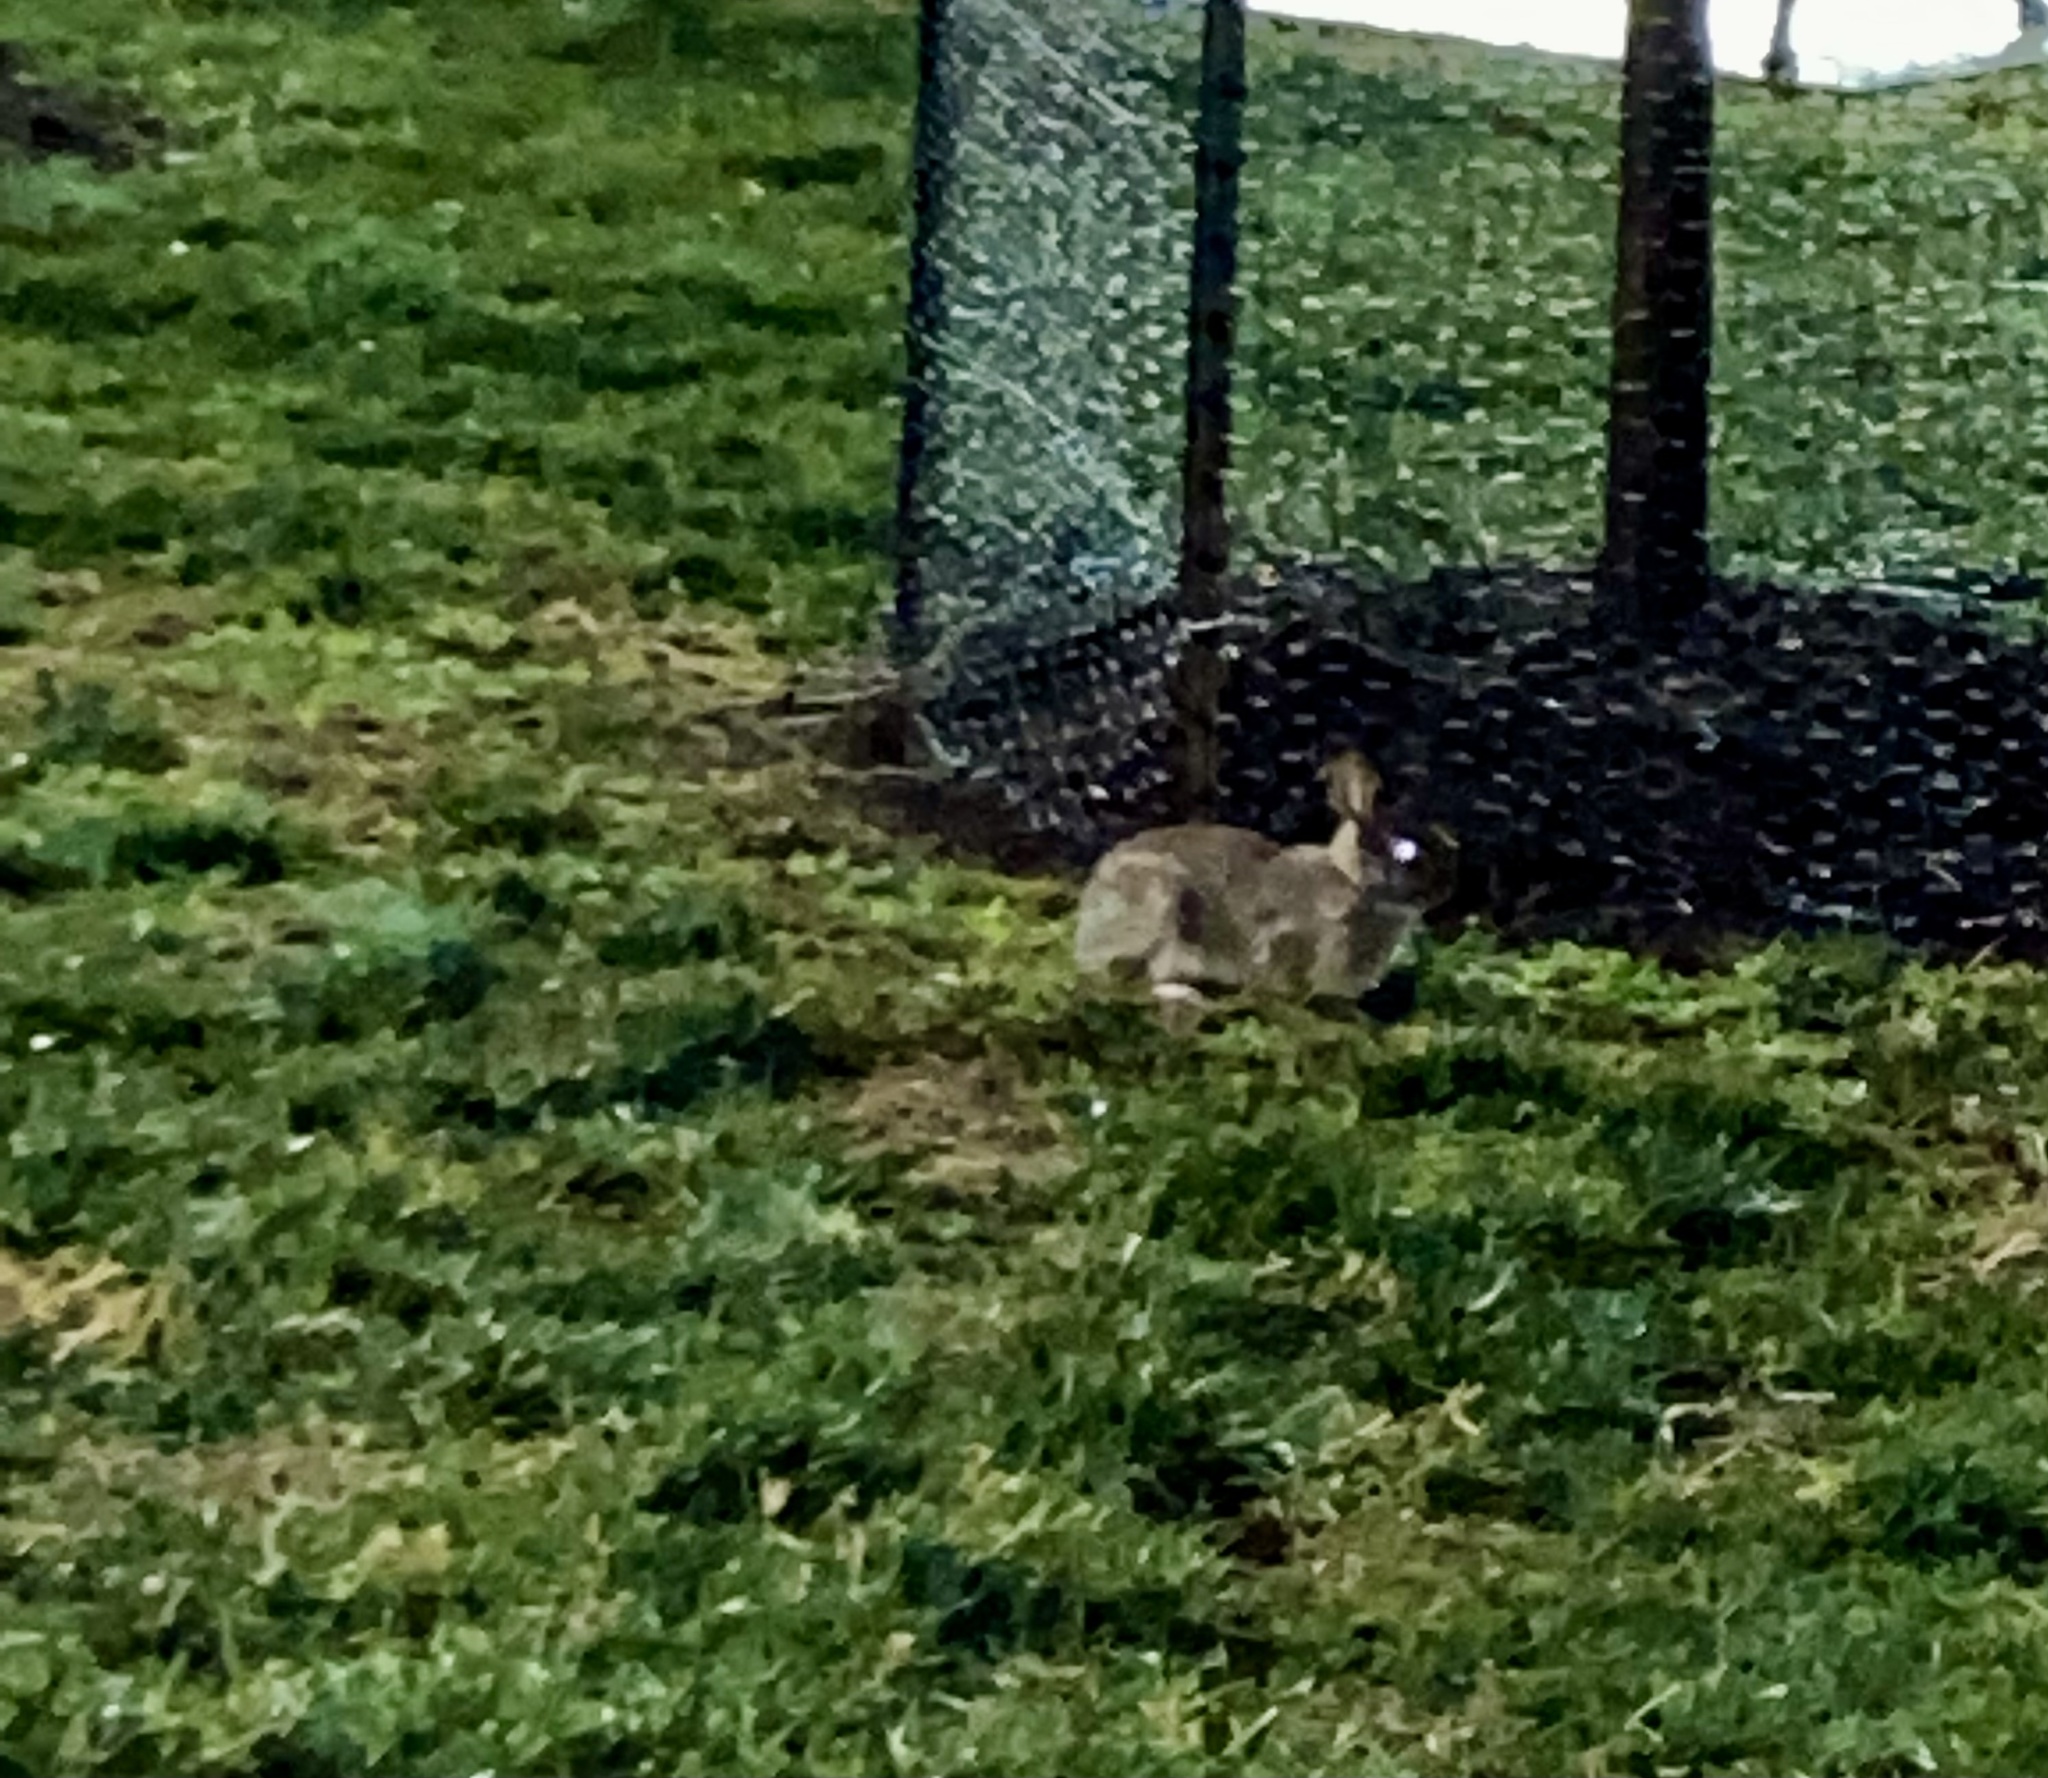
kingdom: Animalia
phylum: Chordata
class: Mammalia
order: Lagomorpha
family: Leporidae
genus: Sylvilagus
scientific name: Sylvilagus floridanus
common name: Eastern cottontail
